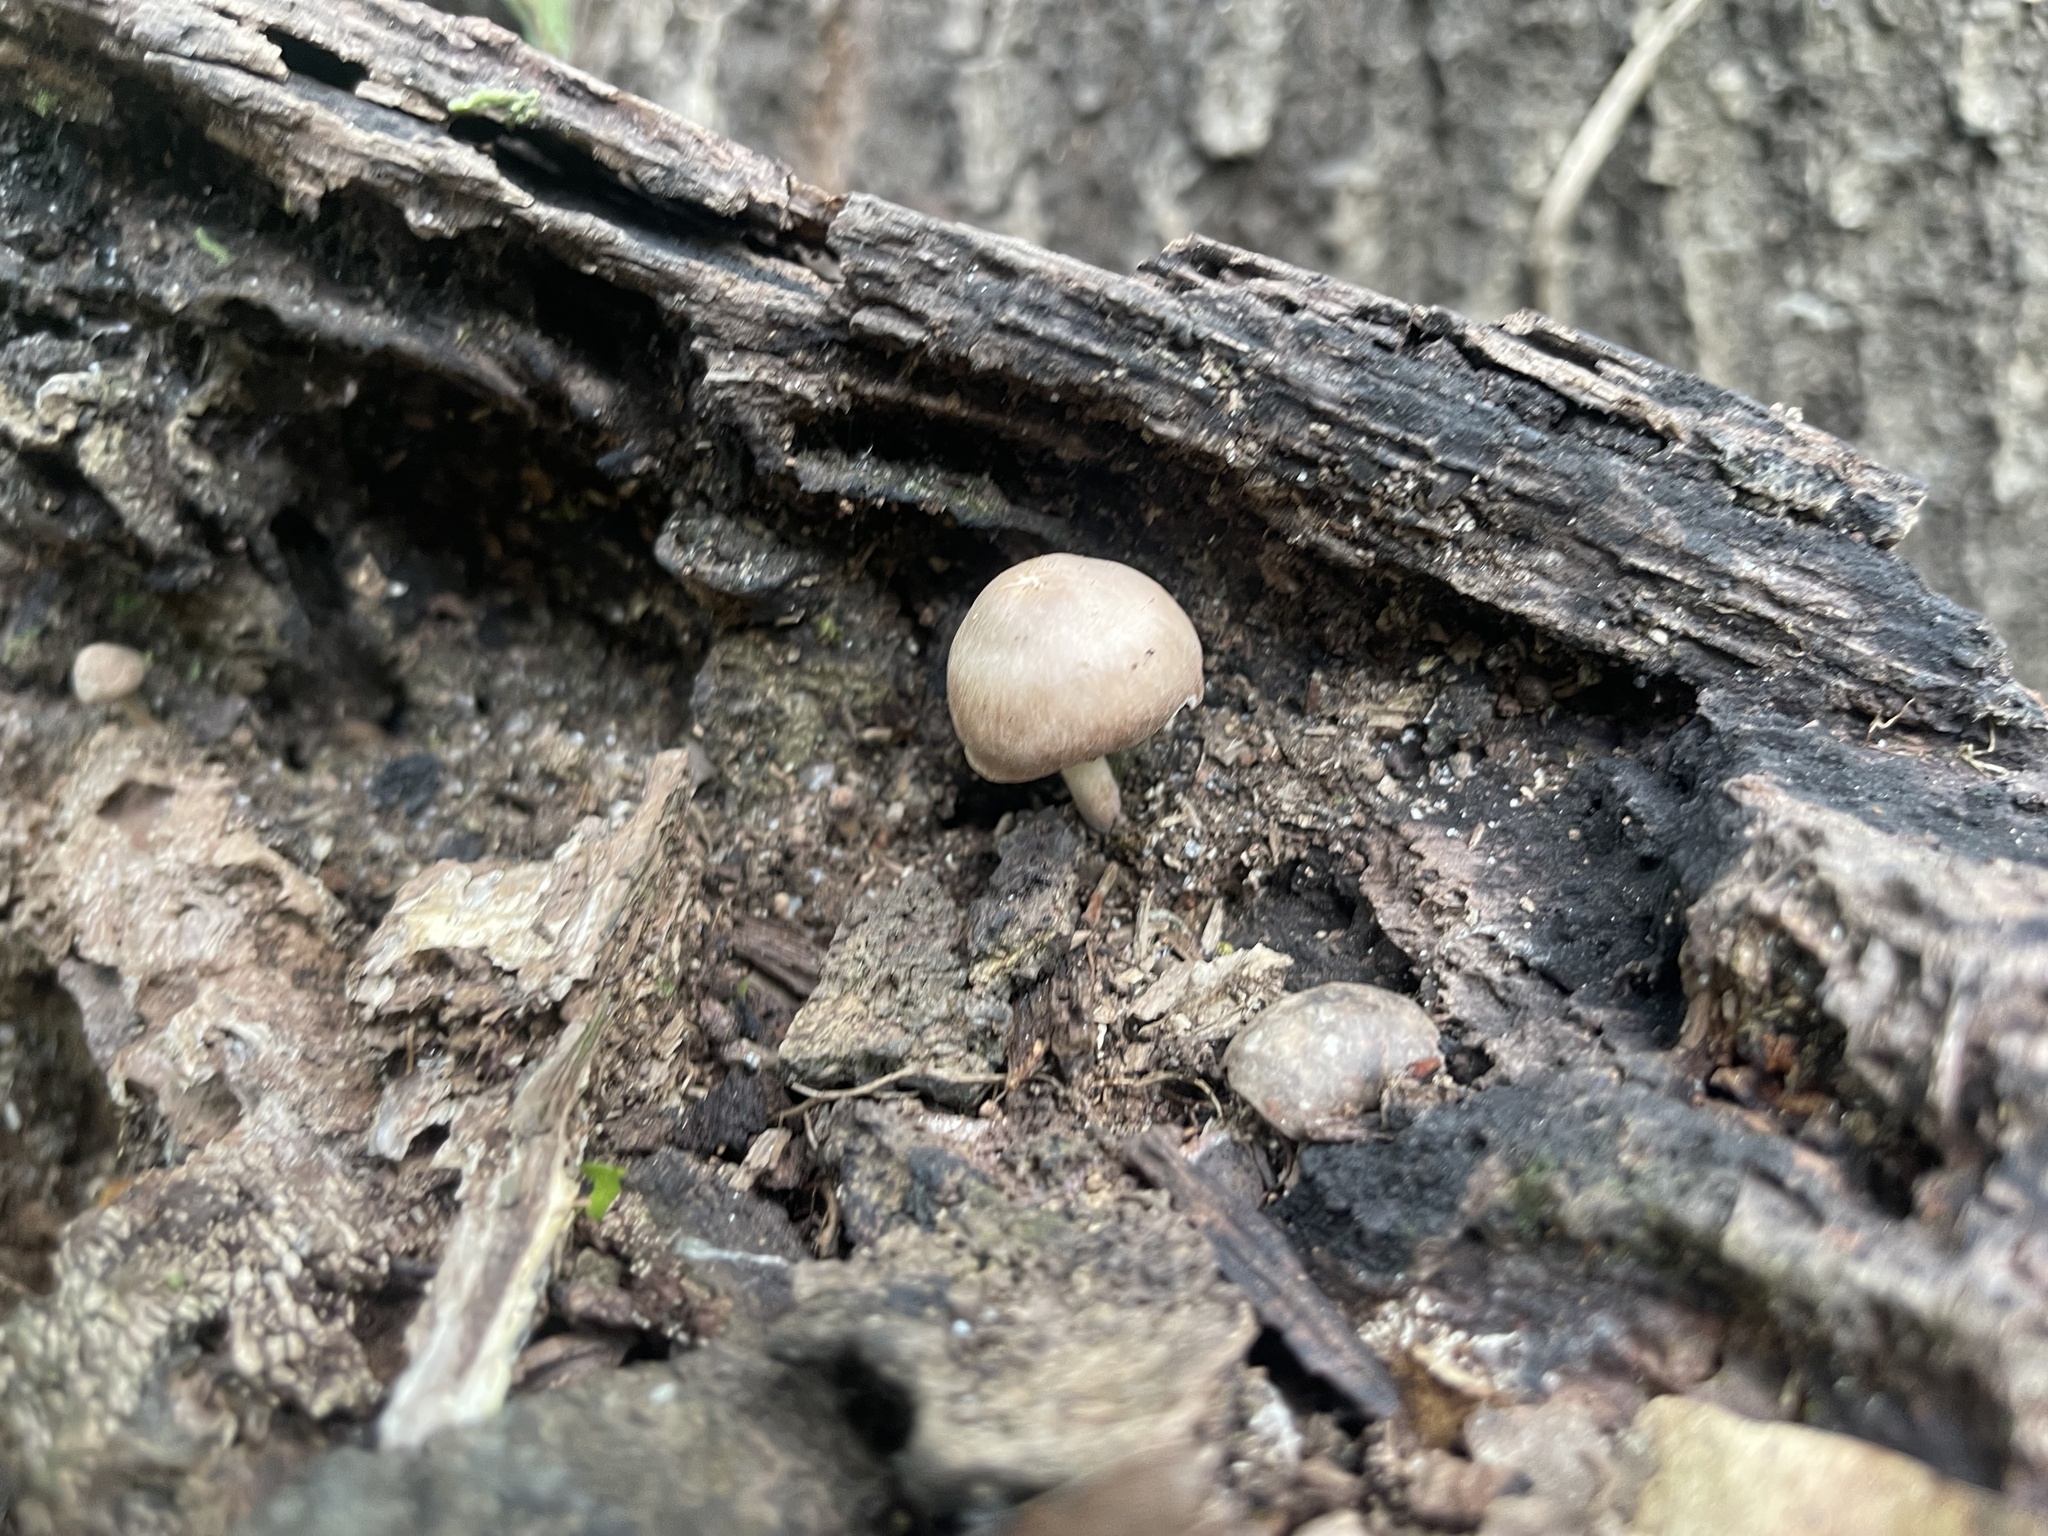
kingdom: Fungi
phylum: Basidiomycota
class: Agaricomycetes
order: Agaricales
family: Pluteaceae
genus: Pluteus
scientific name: Pluteus cervinus
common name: Deer shield
